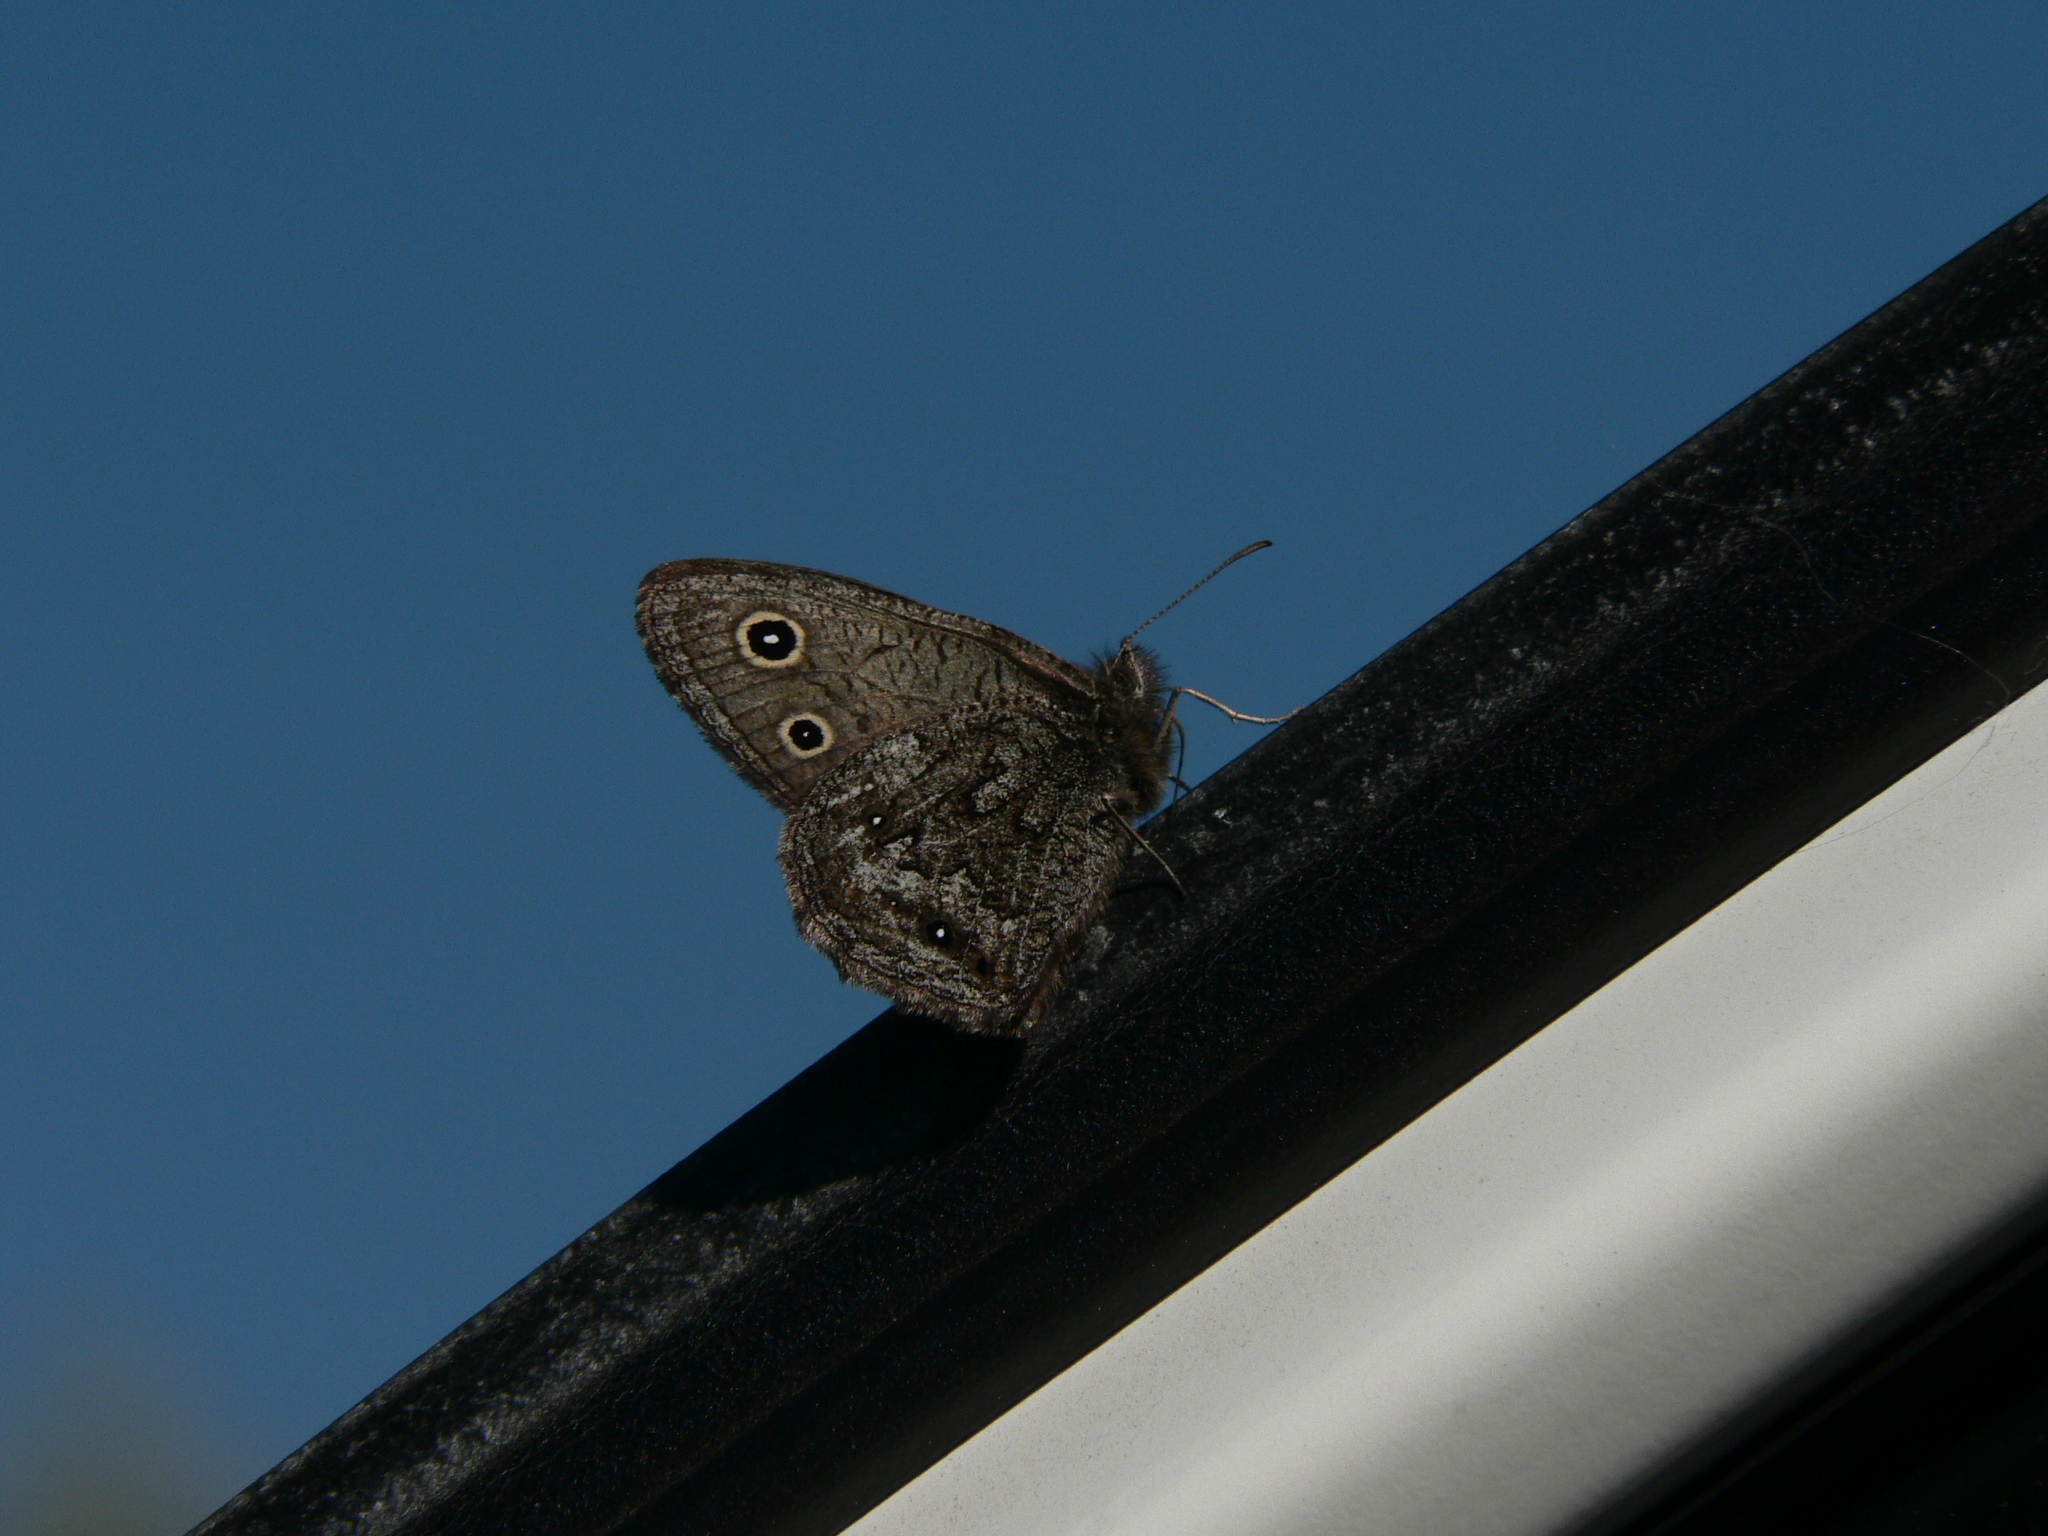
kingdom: Animalia
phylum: Arthropoda
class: Insecta
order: Lepidoptera
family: Nymphalidae
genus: Cercyonis
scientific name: Cercyonis oetus
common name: Small wood-nymph
